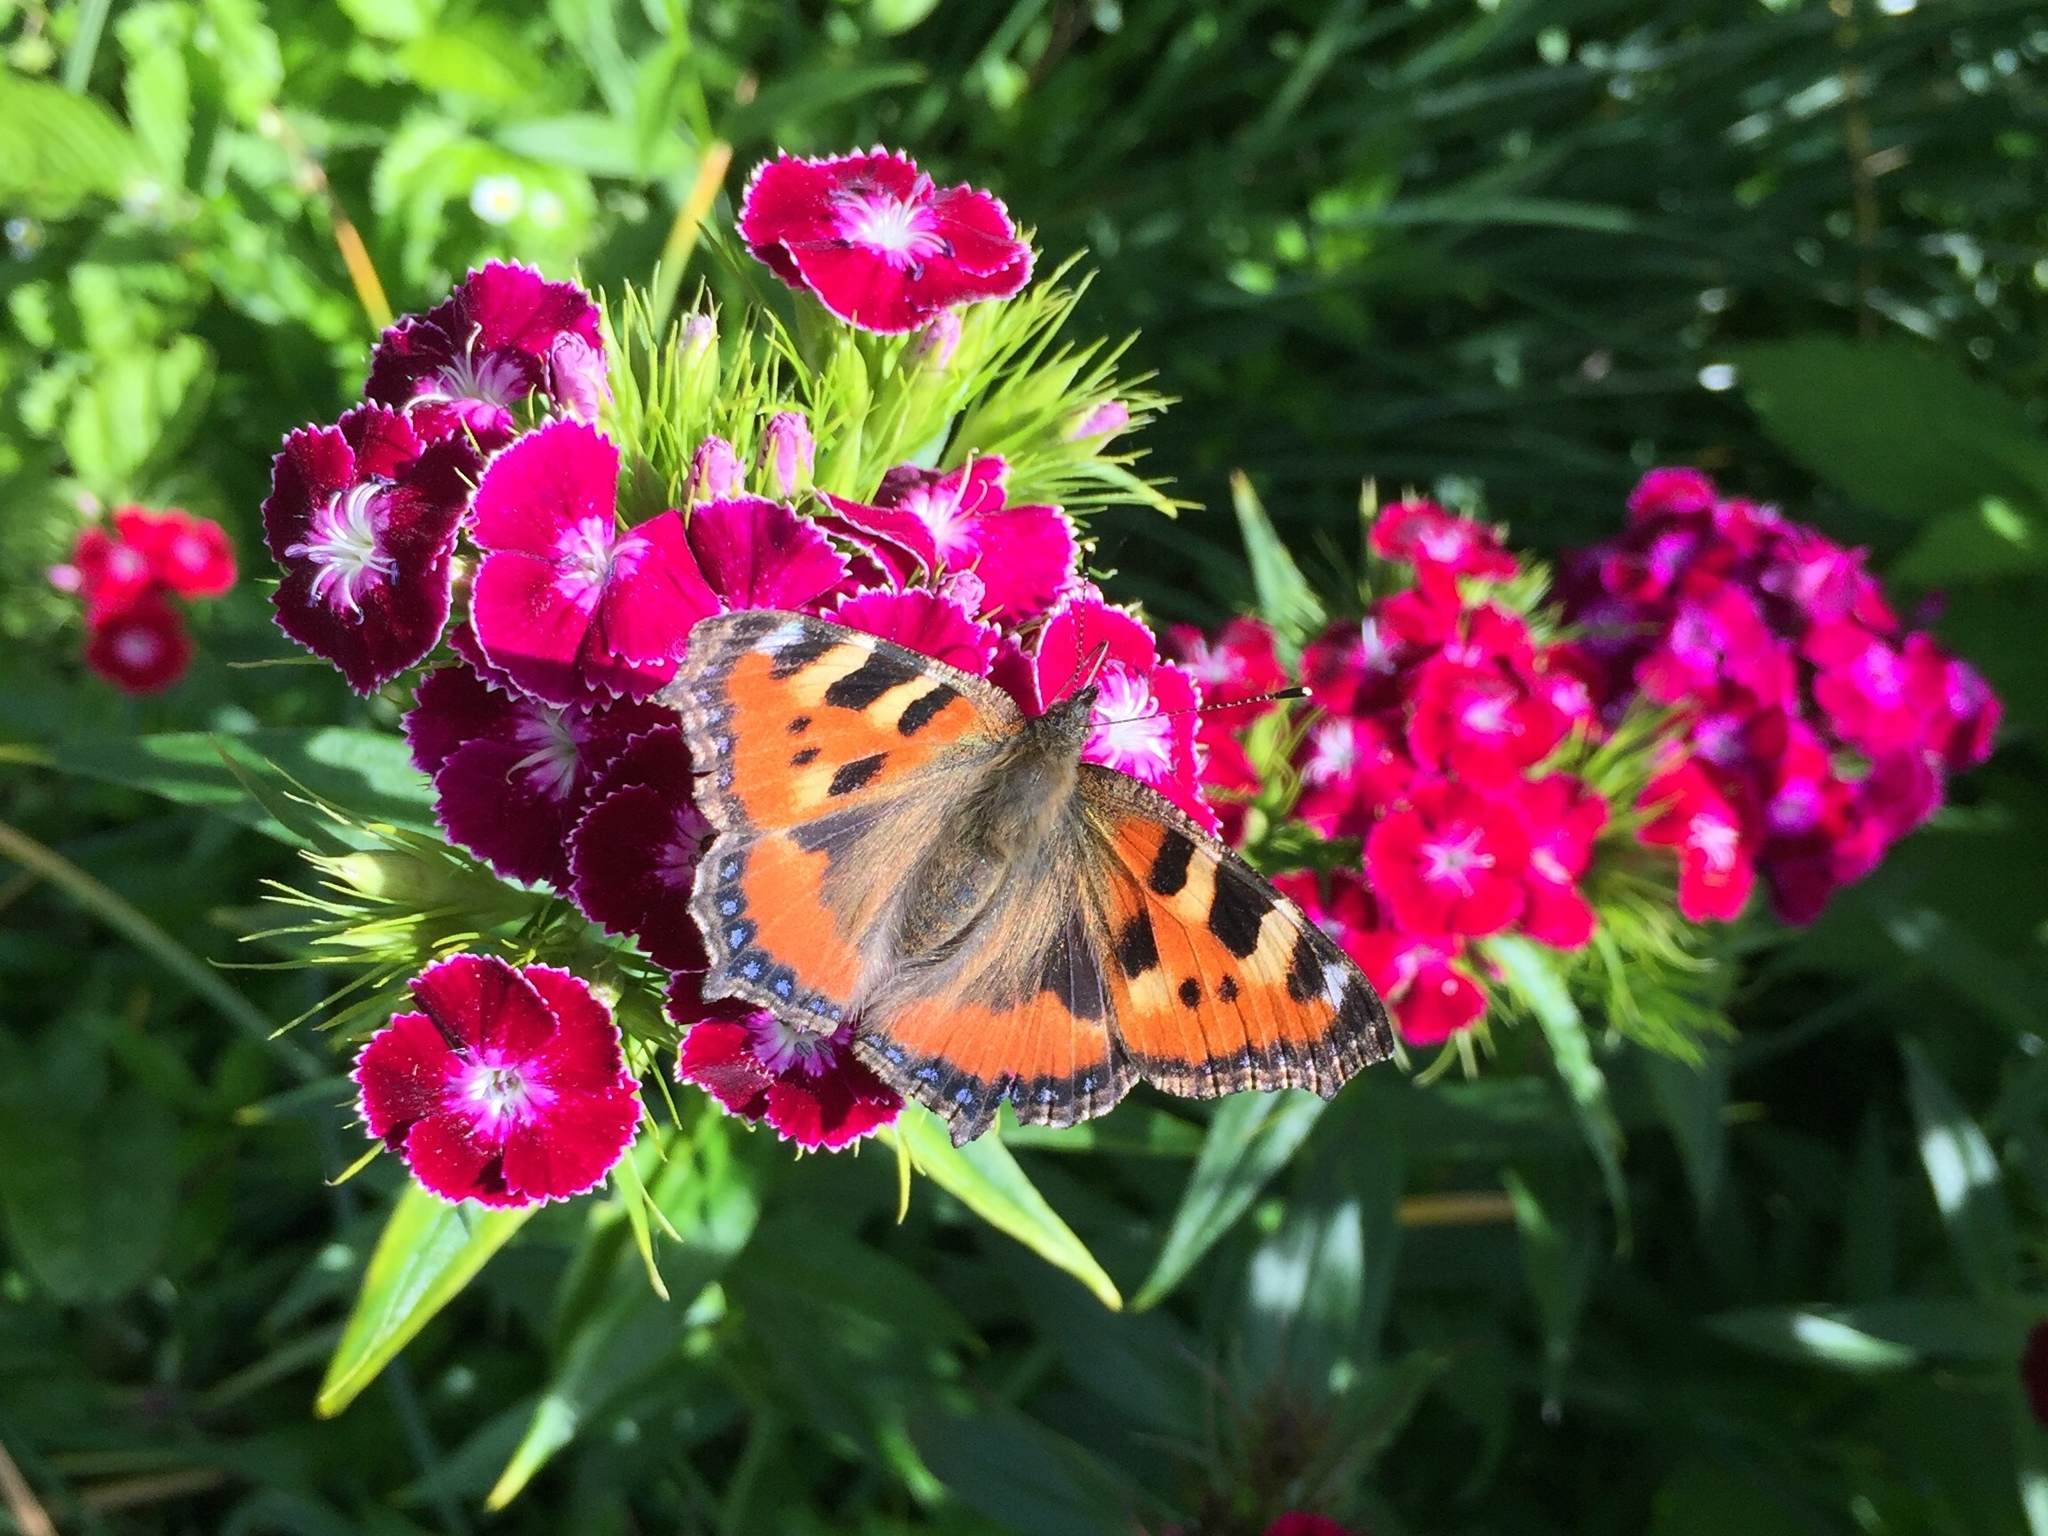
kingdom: Animalia
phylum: Arthropoda
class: Insecta
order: Lepidoptera
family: Nymphalidae
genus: Aglais
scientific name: Aglais urticae
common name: Small tortoiseshell
